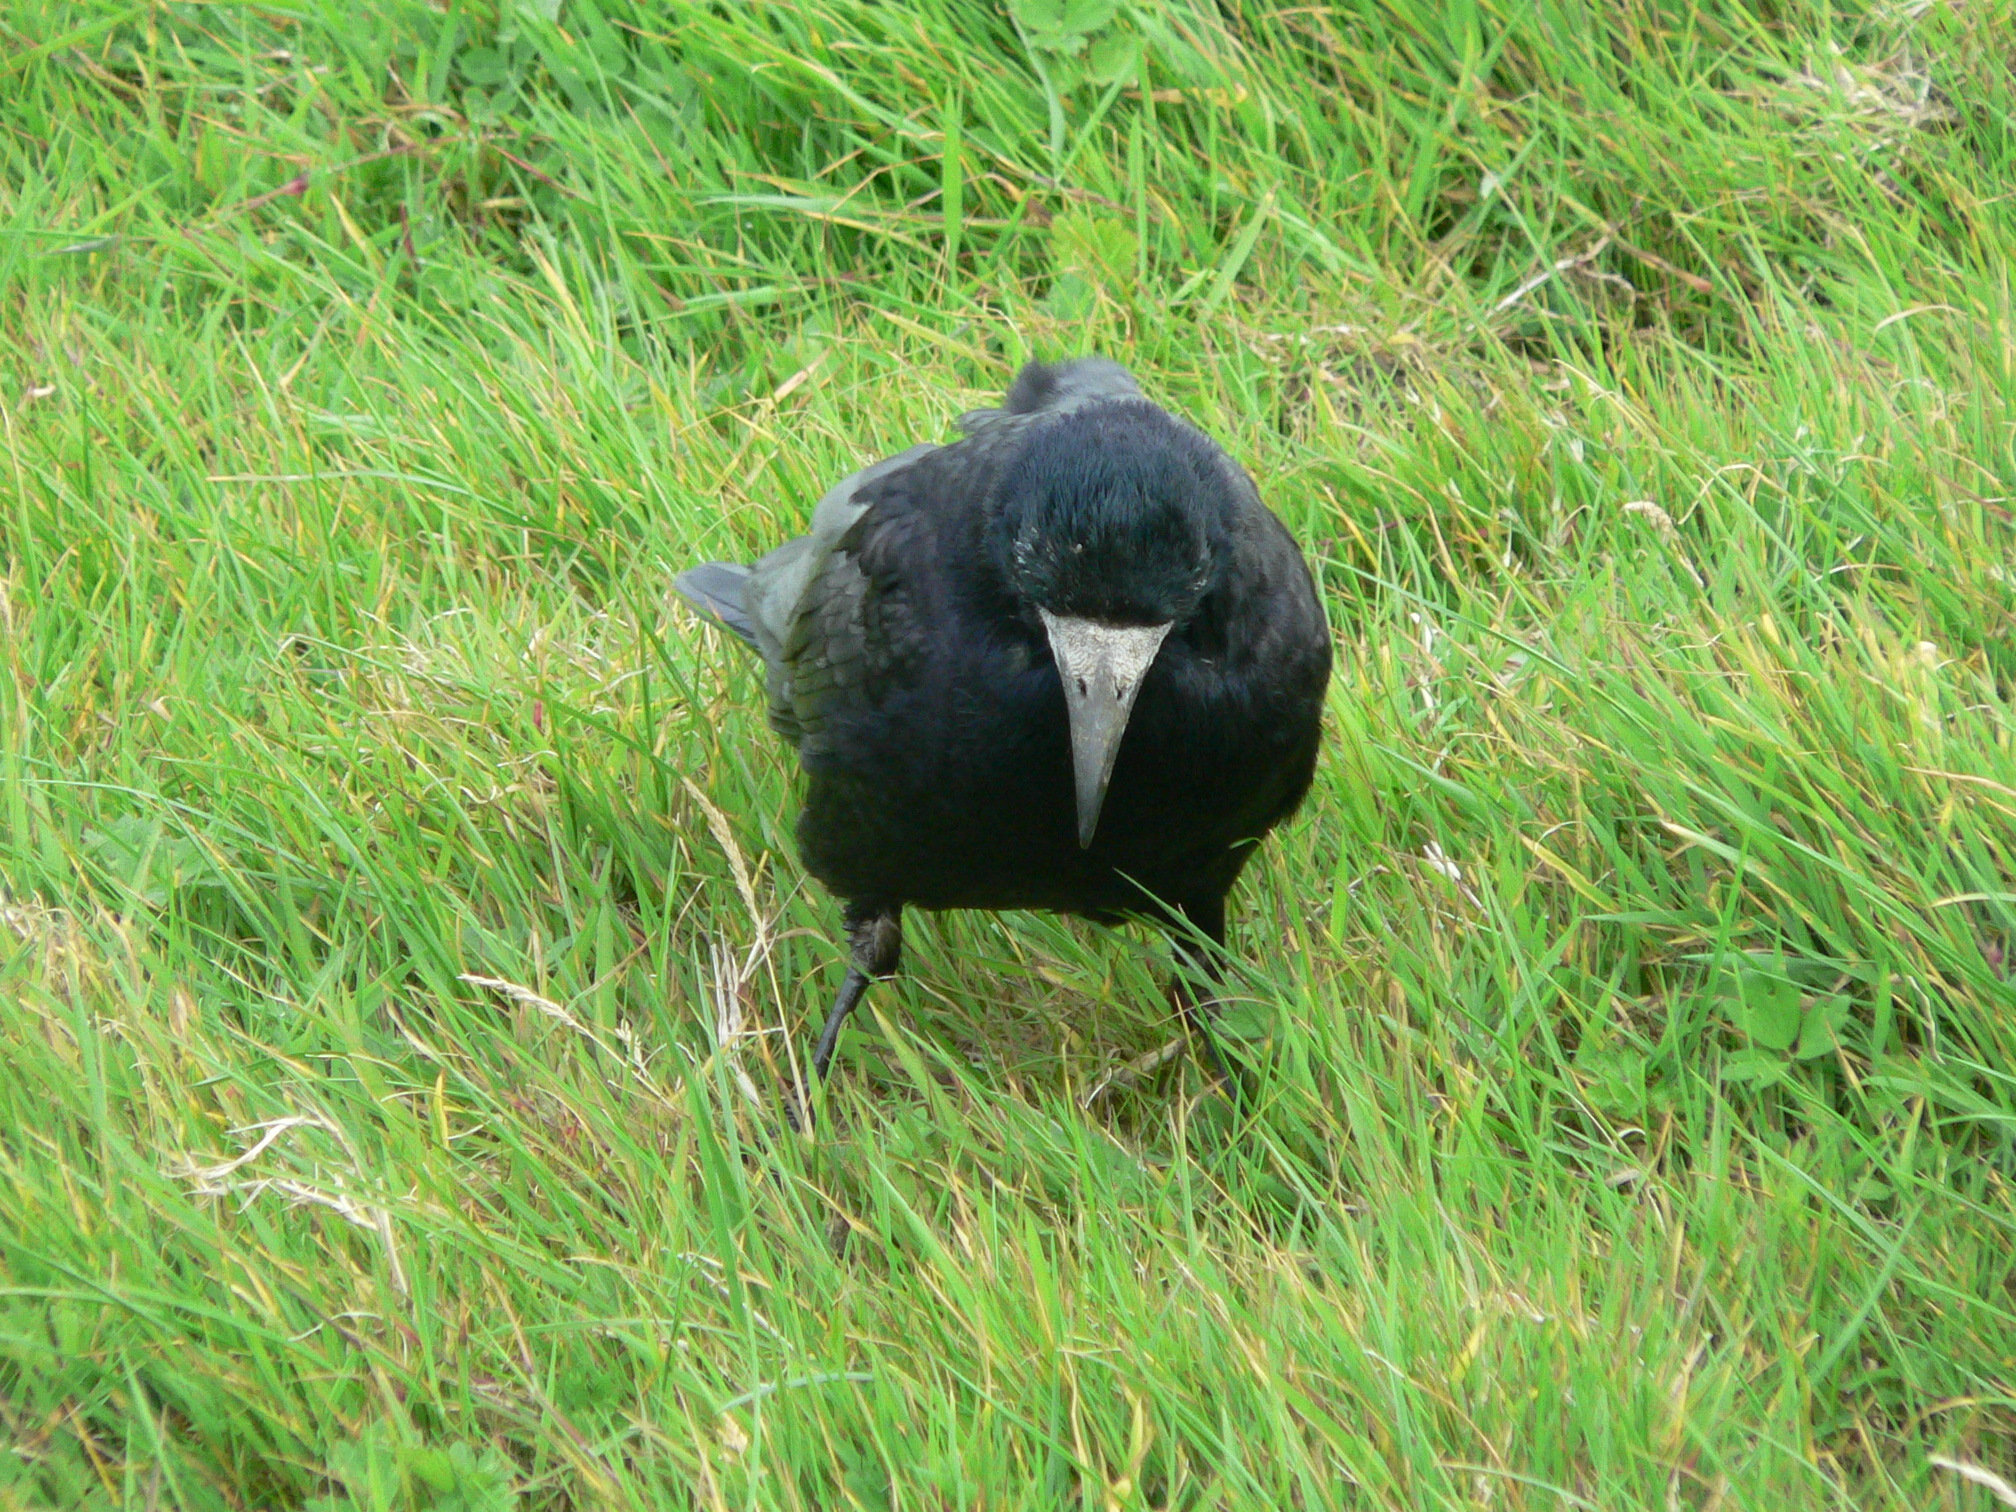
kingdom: Animalia
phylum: Chordata
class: Aves
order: Passeriformes
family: Corvidae
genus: Corvus
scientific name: Corvus frugilegus
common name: Rook
